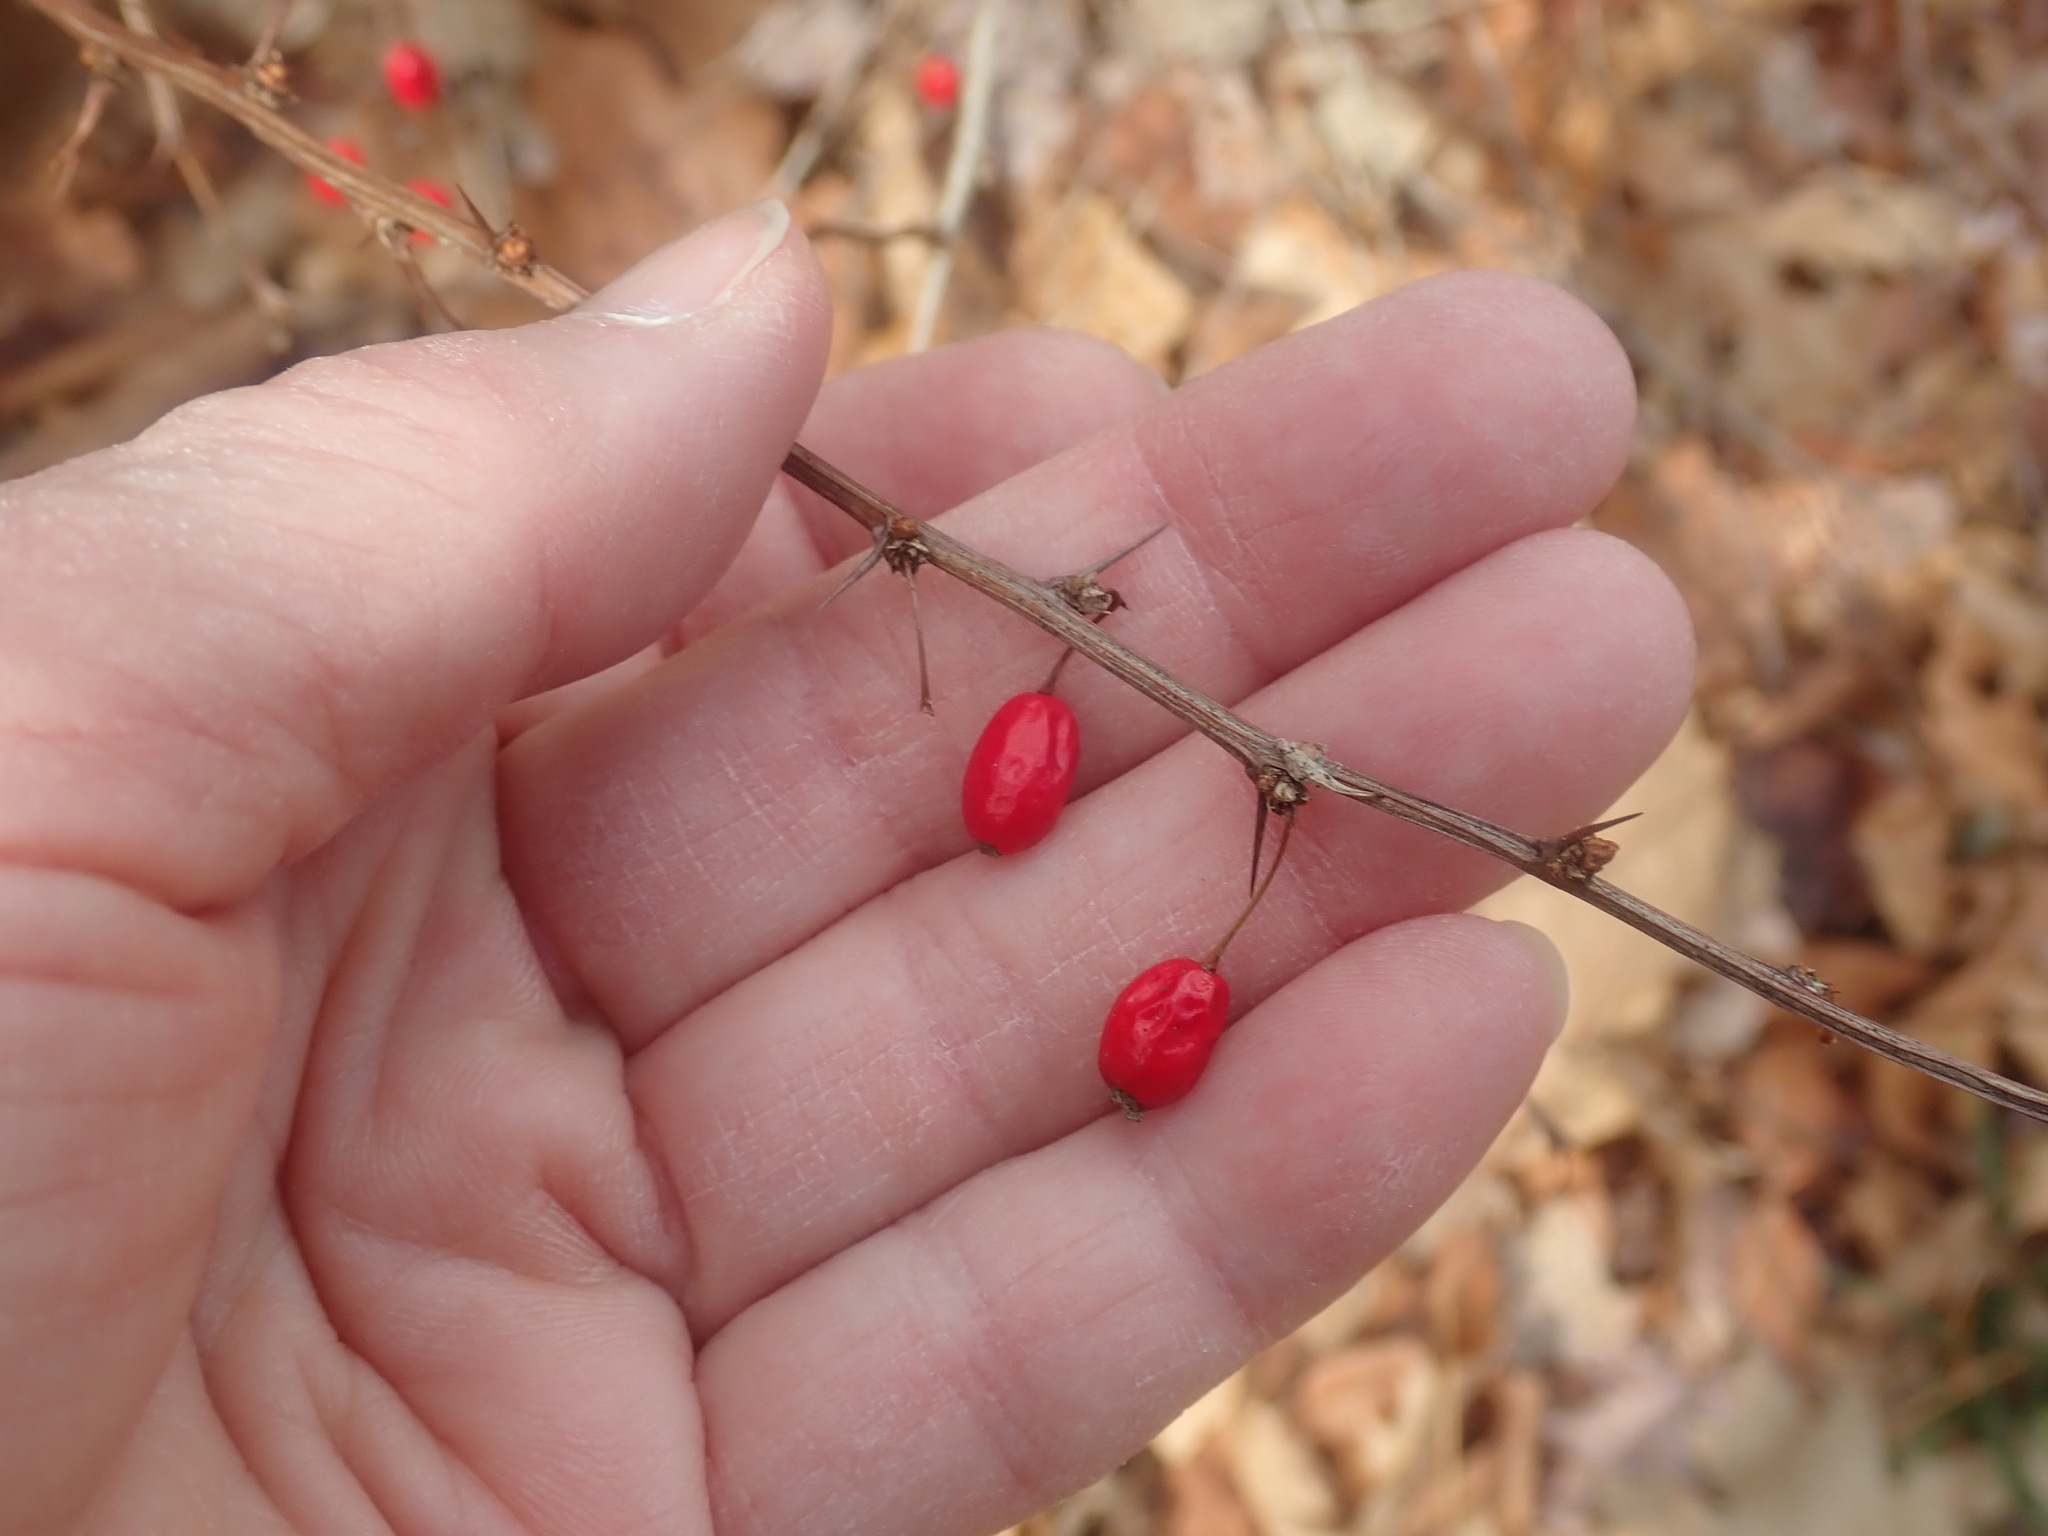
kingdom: Plantae
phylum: Tracheophyta
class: Magnoliopsida
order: Ranunculales
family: Berberidaceae
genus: Berberis
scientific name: Berberis thunbergii
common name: Japanese barberry
